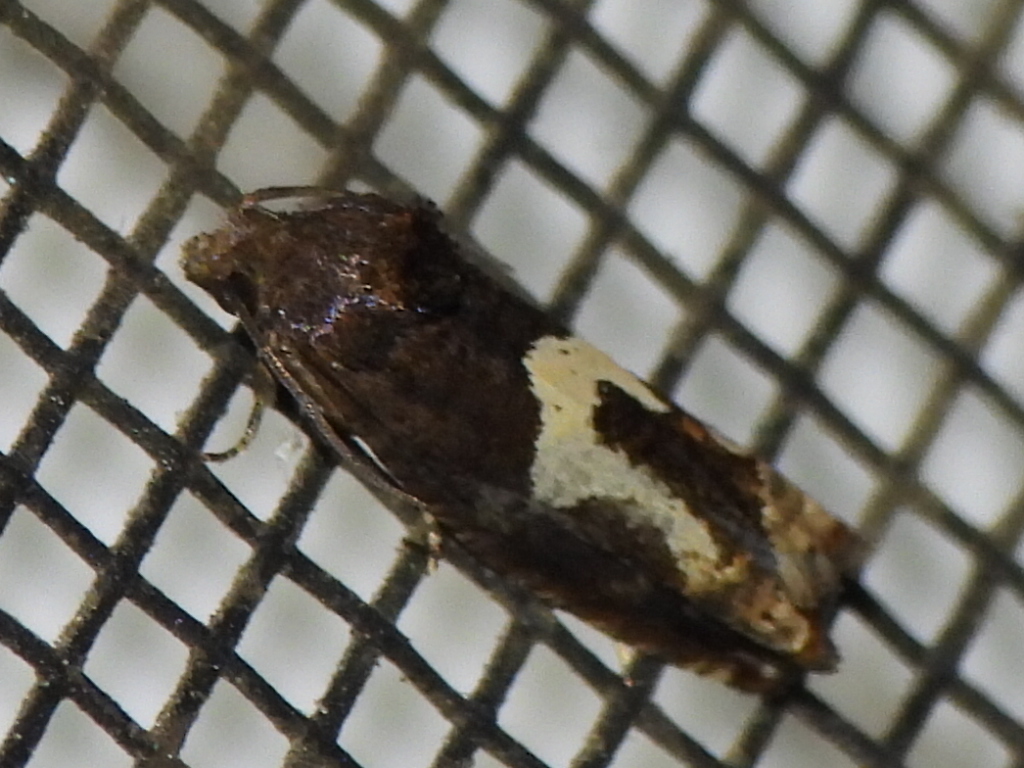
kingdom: Animalia
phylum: Arthropoda
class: Insecta
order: Lepidoptera
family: Tortricidae
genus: Epiblema
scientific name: Epiblema otiosana
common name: Bidens borer moth
